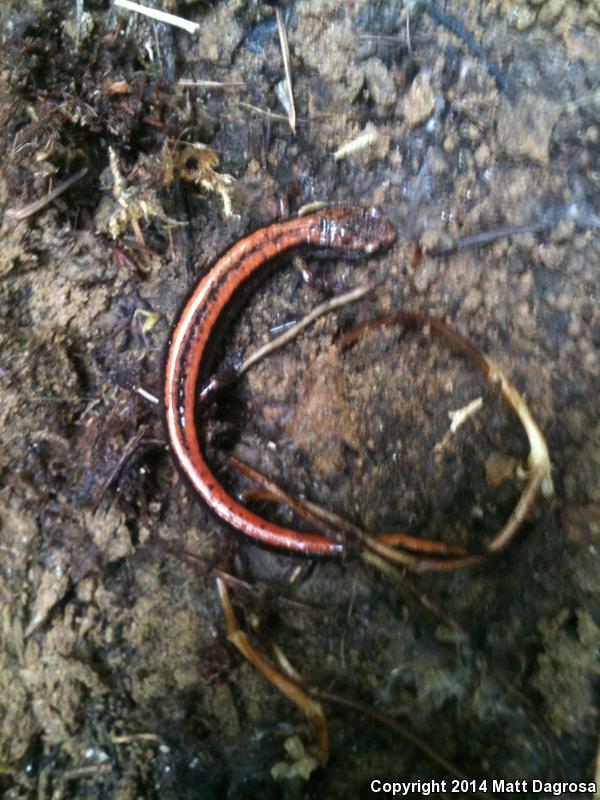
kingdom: Animalia
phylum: Chordata
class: Amphibia
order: Caudata
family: Plethodontidae
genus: Plethodon
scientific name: Plethodon vehiculum
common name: Western red-backed salamander
